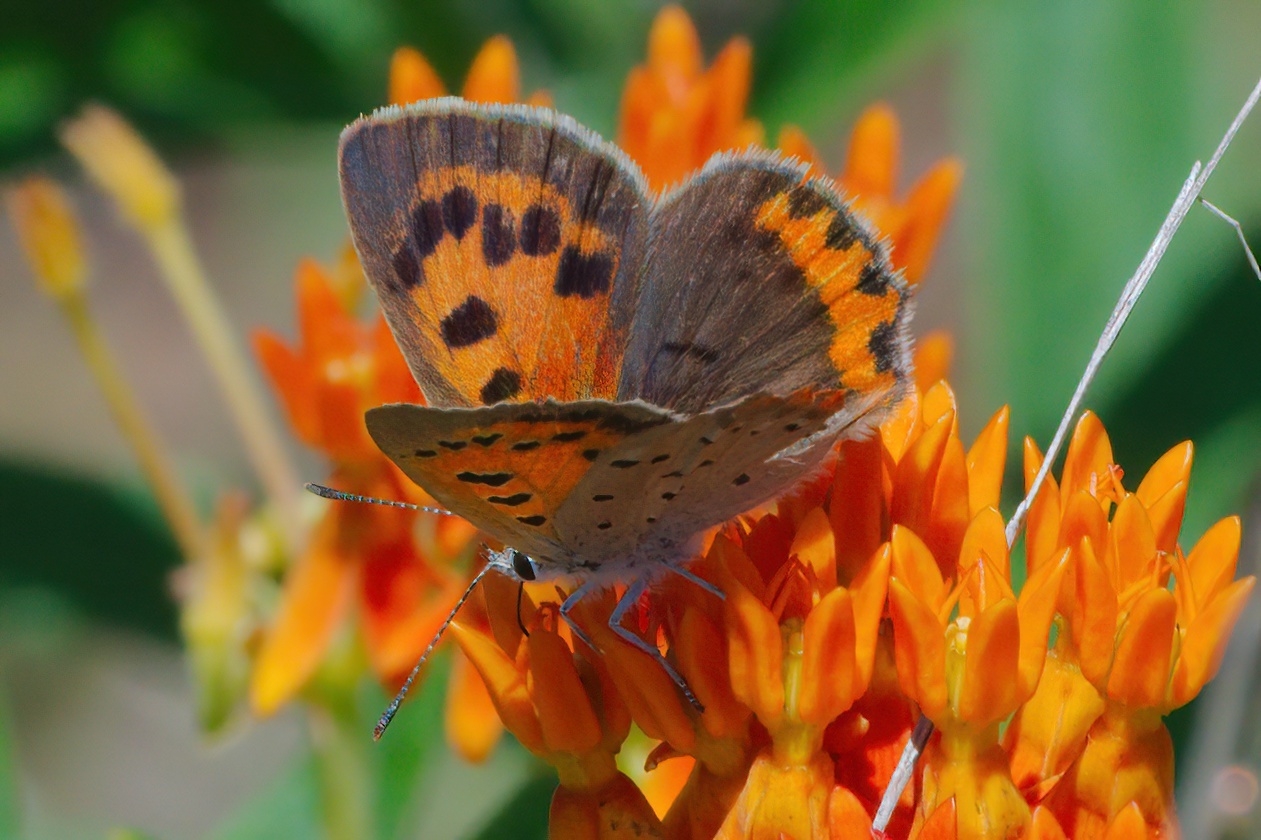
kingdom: Animalia
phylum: Arthropoda
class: Insecta
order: Lepidoptera
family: Lycaenidae
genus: Lycaena
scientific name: Lycaena hypophlaeas
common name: American copper
